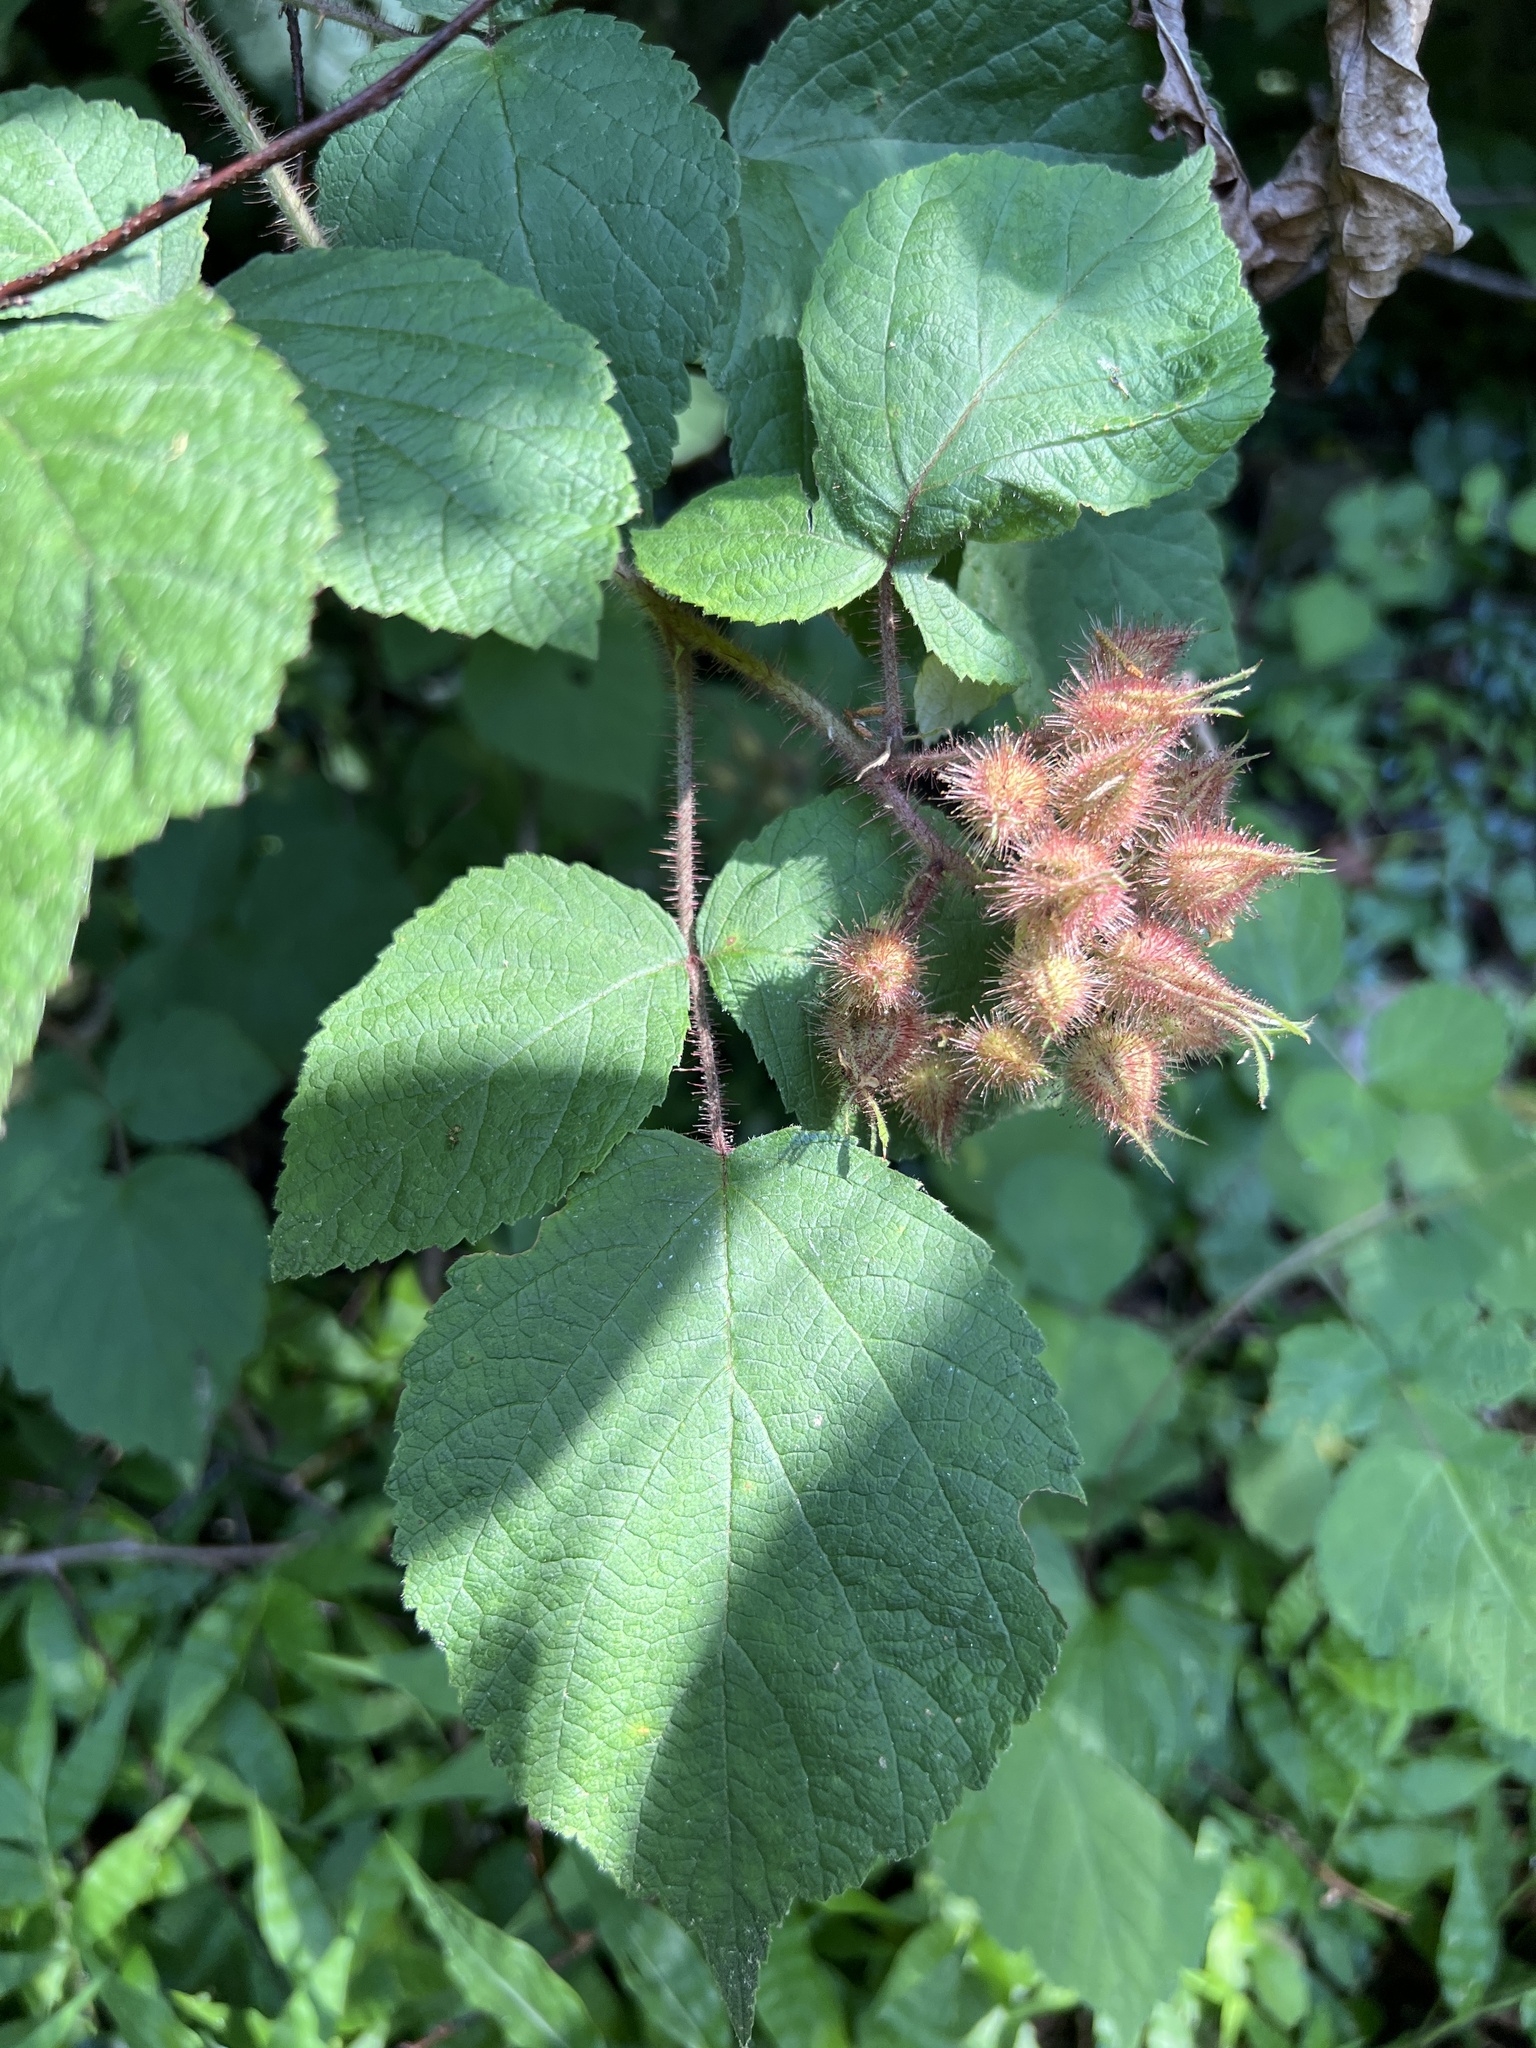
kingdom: Plantae
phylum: Tracheophyta
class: Magnoliopsida
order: Rosales
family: Rosaceae
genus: Rubus
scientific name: Rubus phoenicolasius
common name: Japanese wineberry
